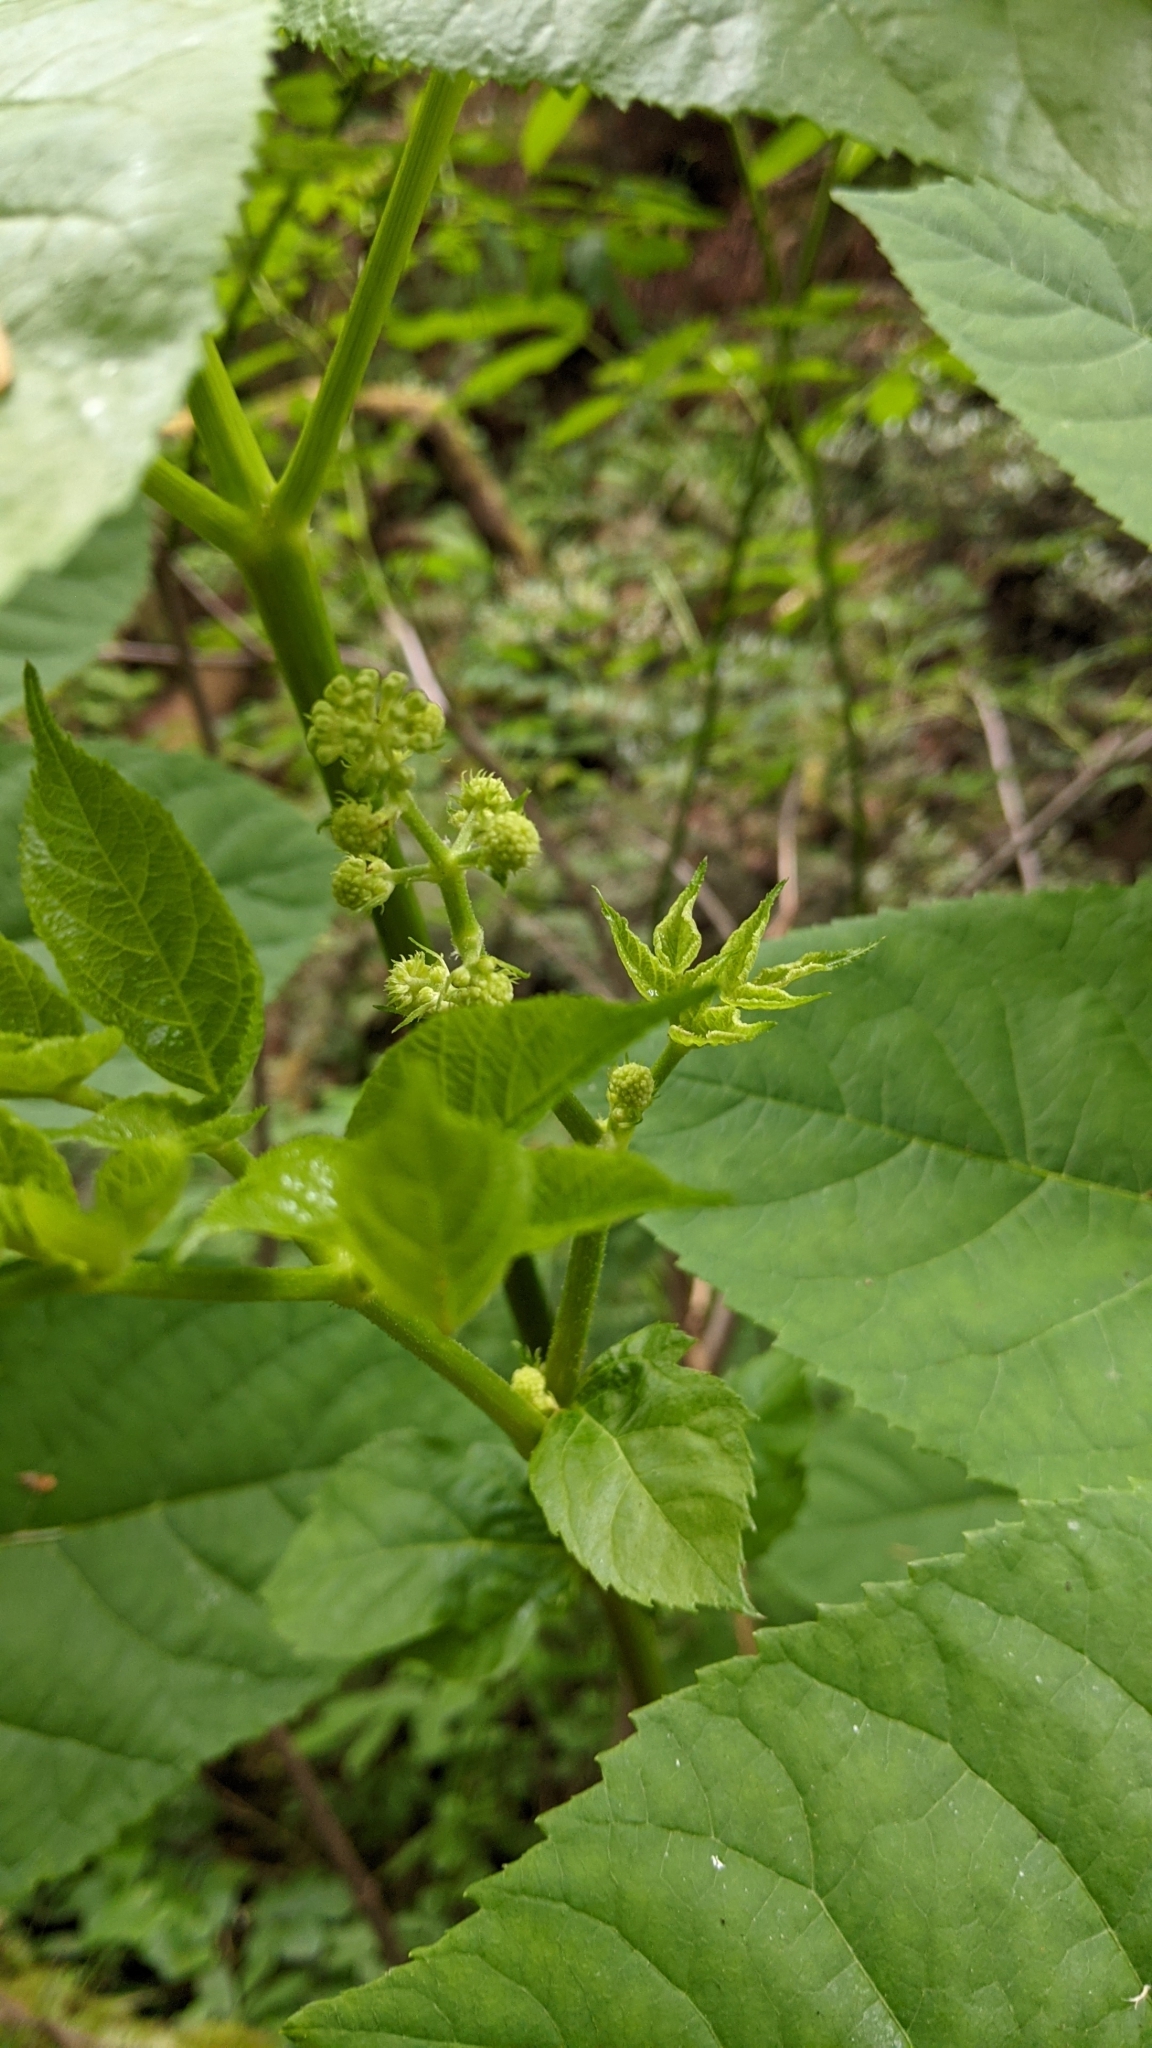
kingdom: Plantae
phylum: Tracheophyta
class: Magnoliopsida
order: Apiales
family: Araliaceae
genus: Aralia
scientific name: Aralia californica
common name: California-ginseng
